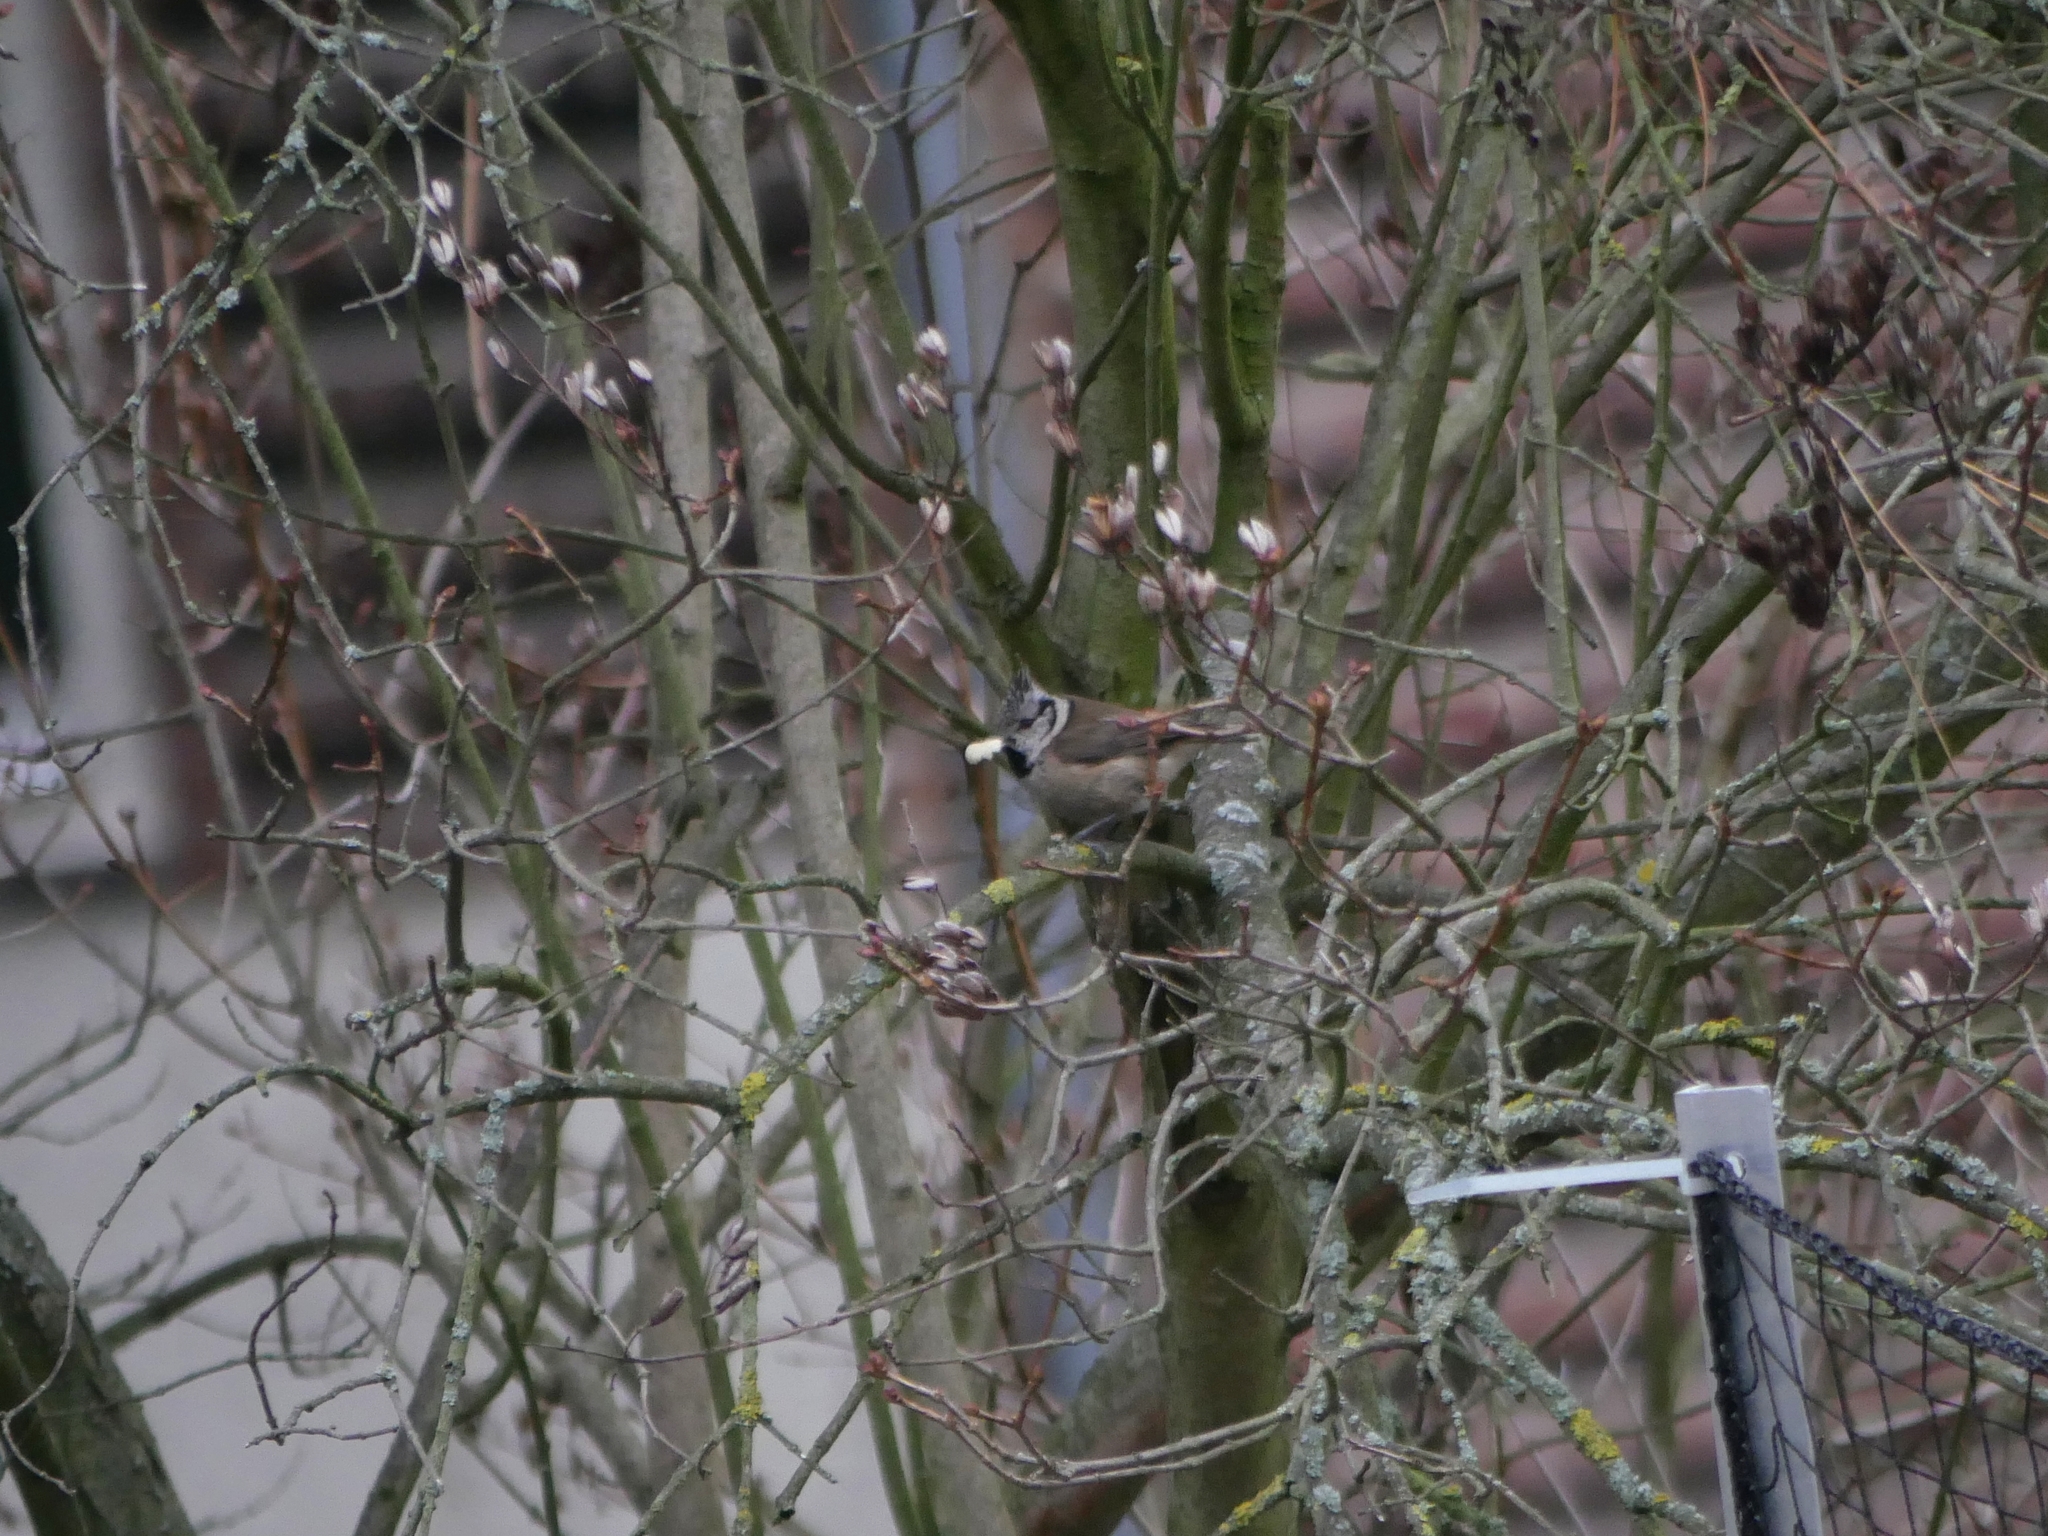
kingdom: Animalia
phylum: Chordata
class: Aves
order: Passeriformes
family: Paridae
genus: Lophophanes
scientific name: Lophophanes cristatus
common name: European crested tit
